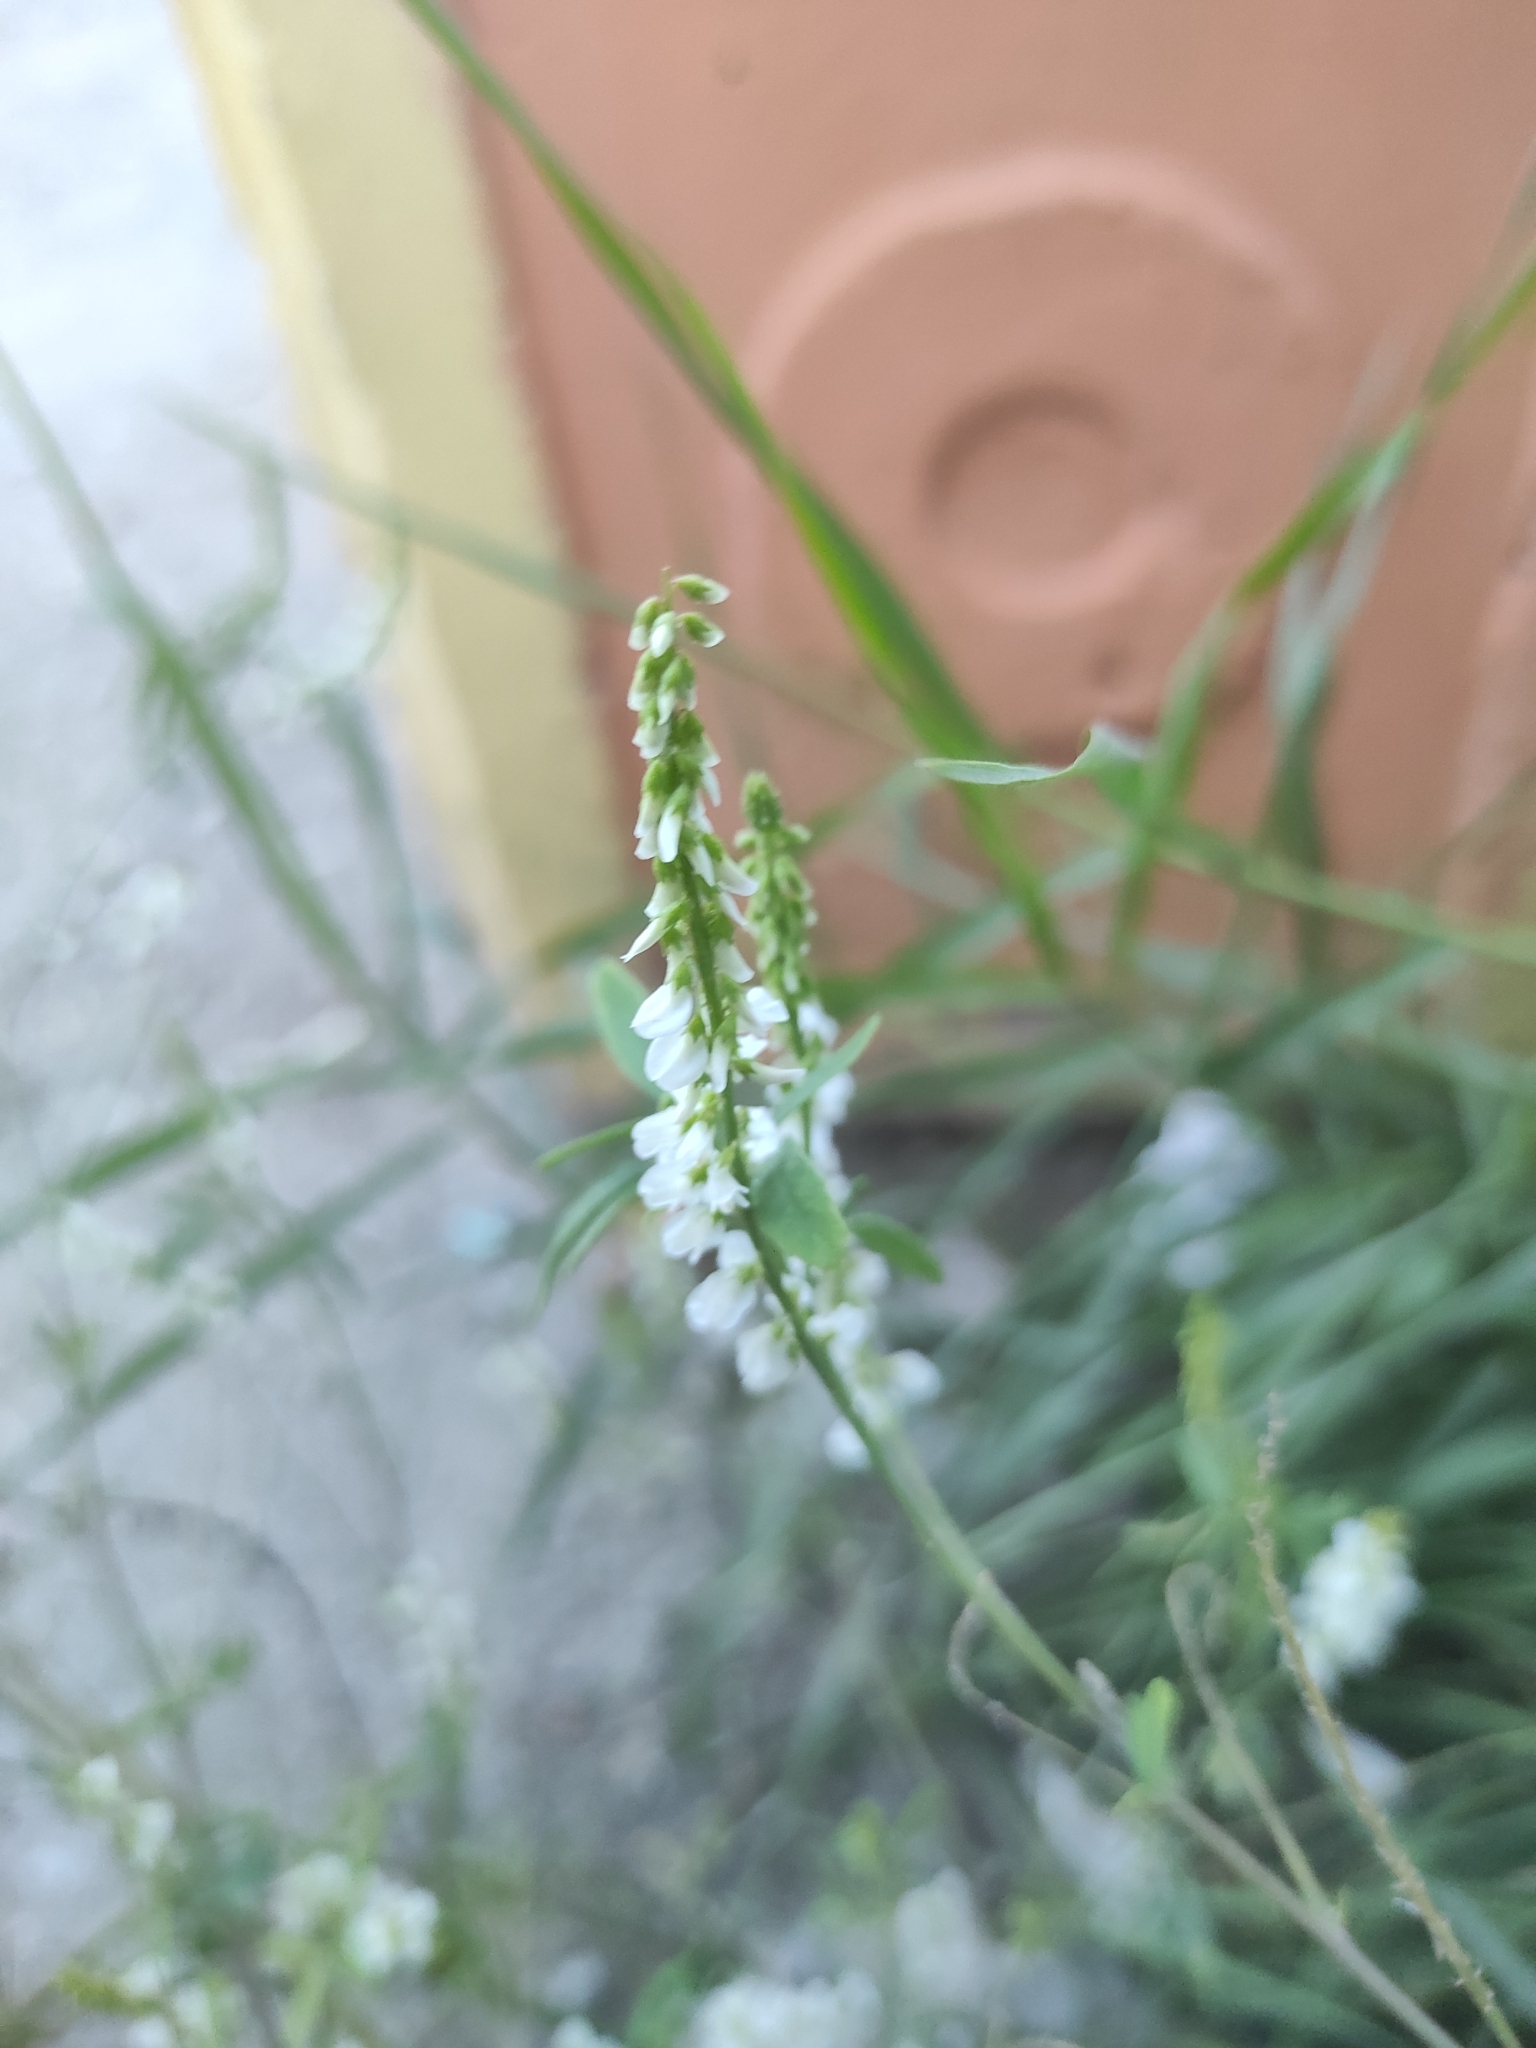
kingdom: Plantae
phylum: Tracheophyta
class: Magnoliopsida
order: Fabales
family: Fabaceae
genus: Melilotus
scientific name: Melilotus albus
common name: White melilot
